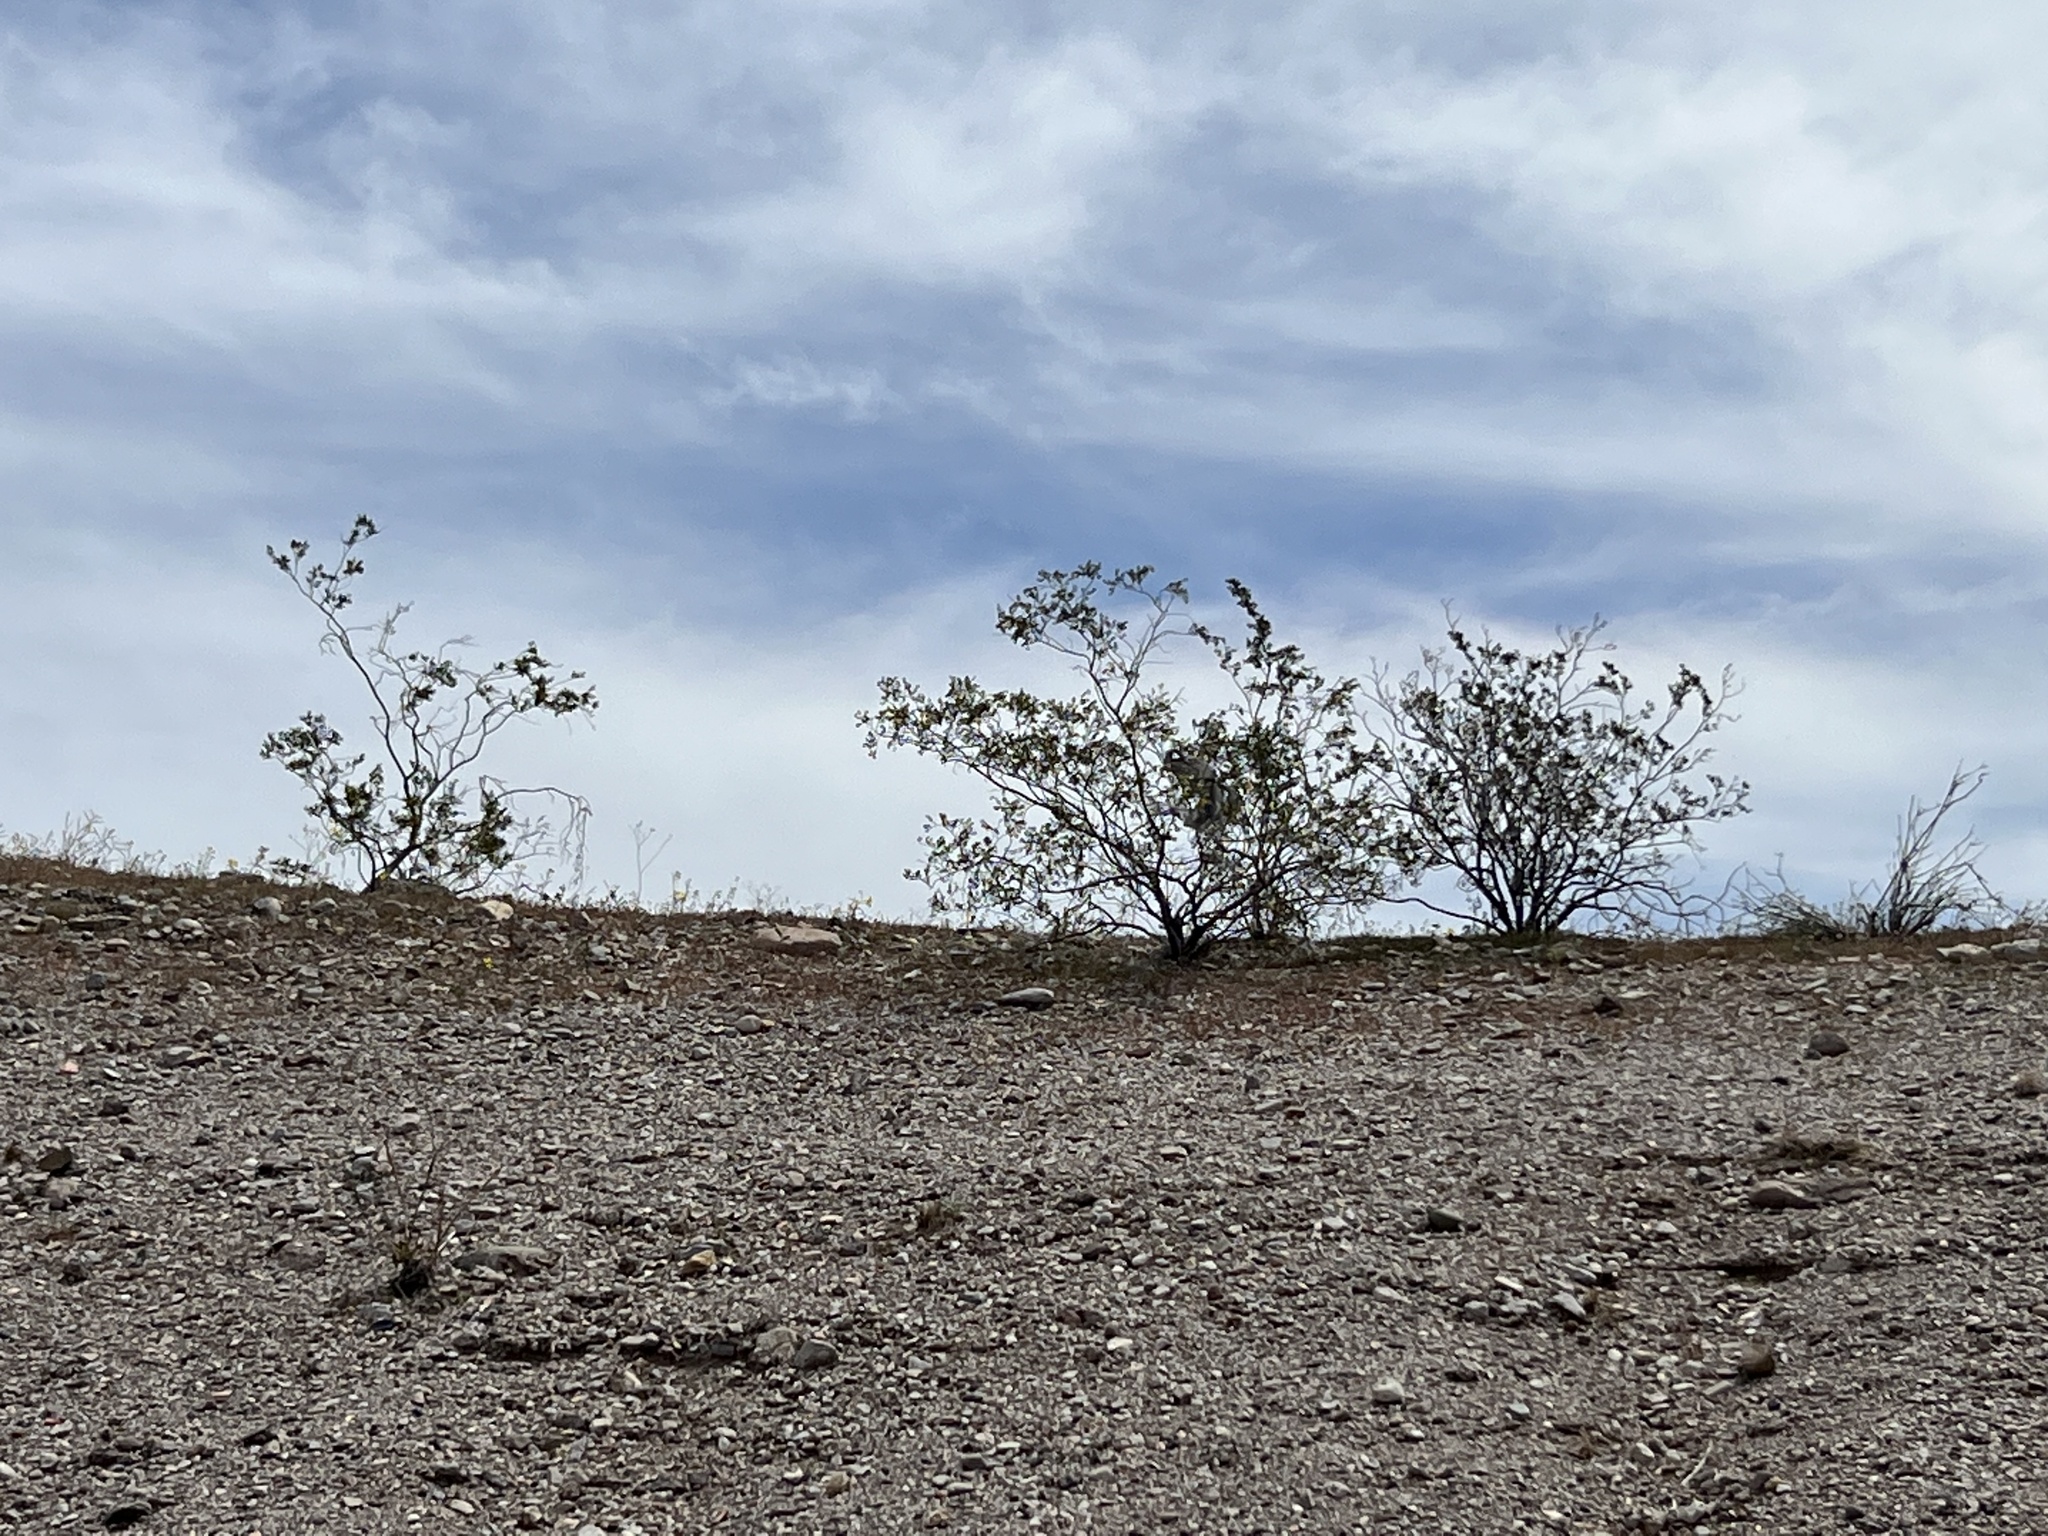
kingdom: Plantae
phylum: Tracheophyta
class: Magnoliopsida
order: Zygophyllales
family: Zygophyllaceae
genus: Larrea
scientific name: Larrea tridentata
